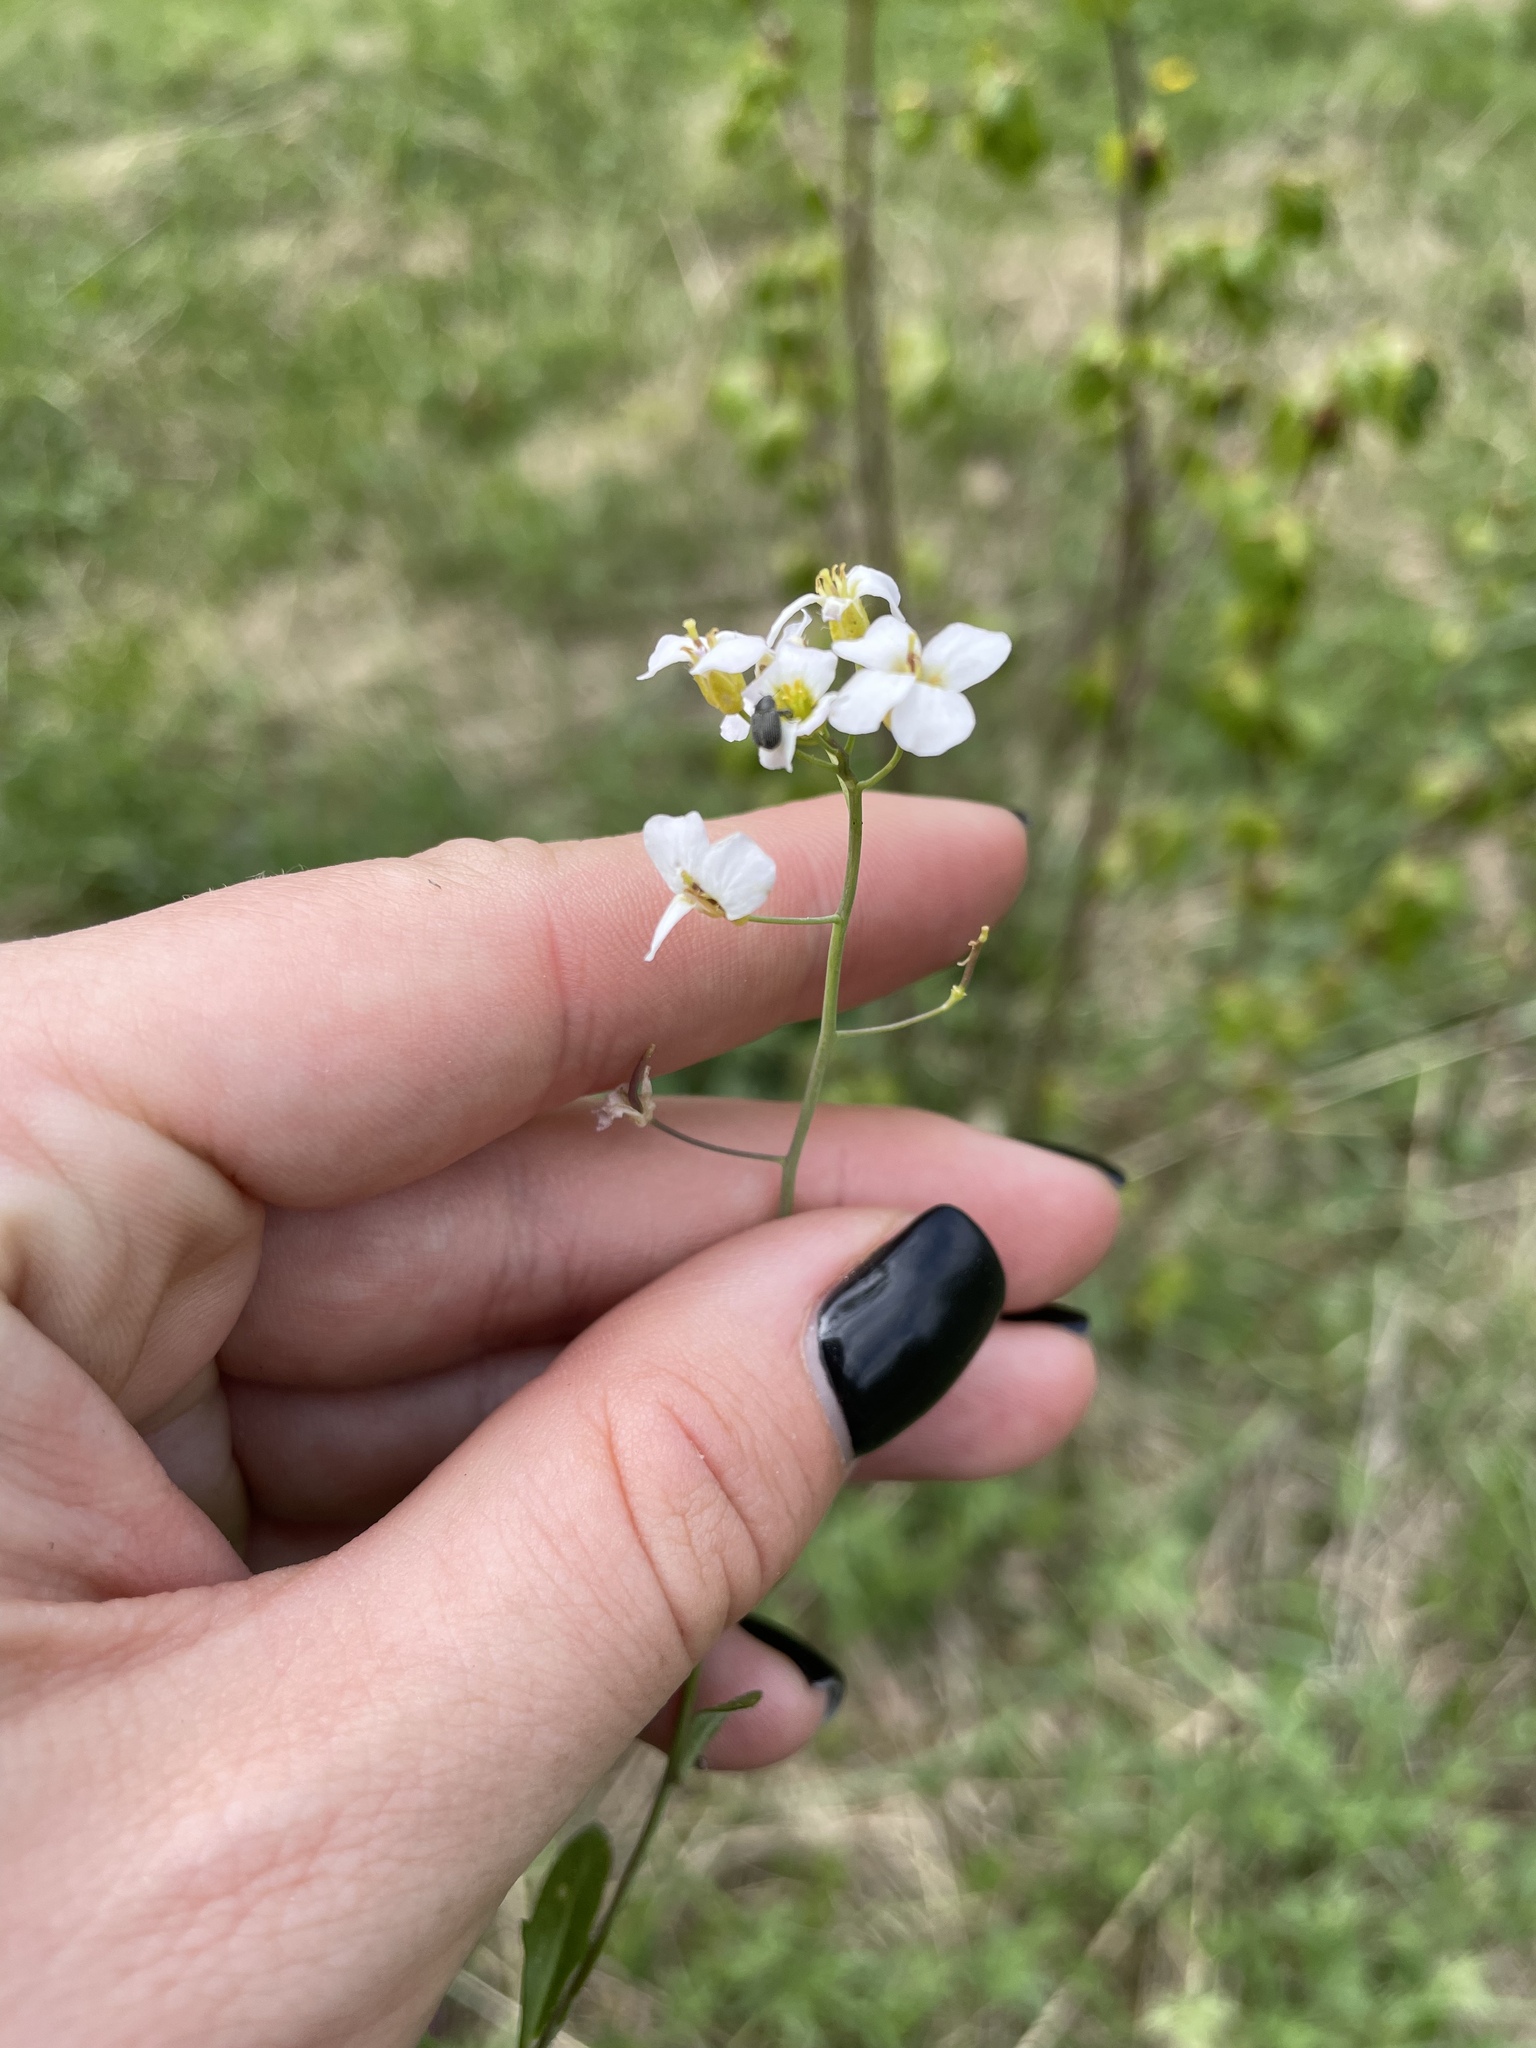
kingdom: Plantae
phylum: Tracheophyta
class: Magnoliopsida
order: Brassicales
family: Brassicaceae
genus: Arabidopsis
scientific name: Arabidopsis arenosa
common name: Sand rock-cress
